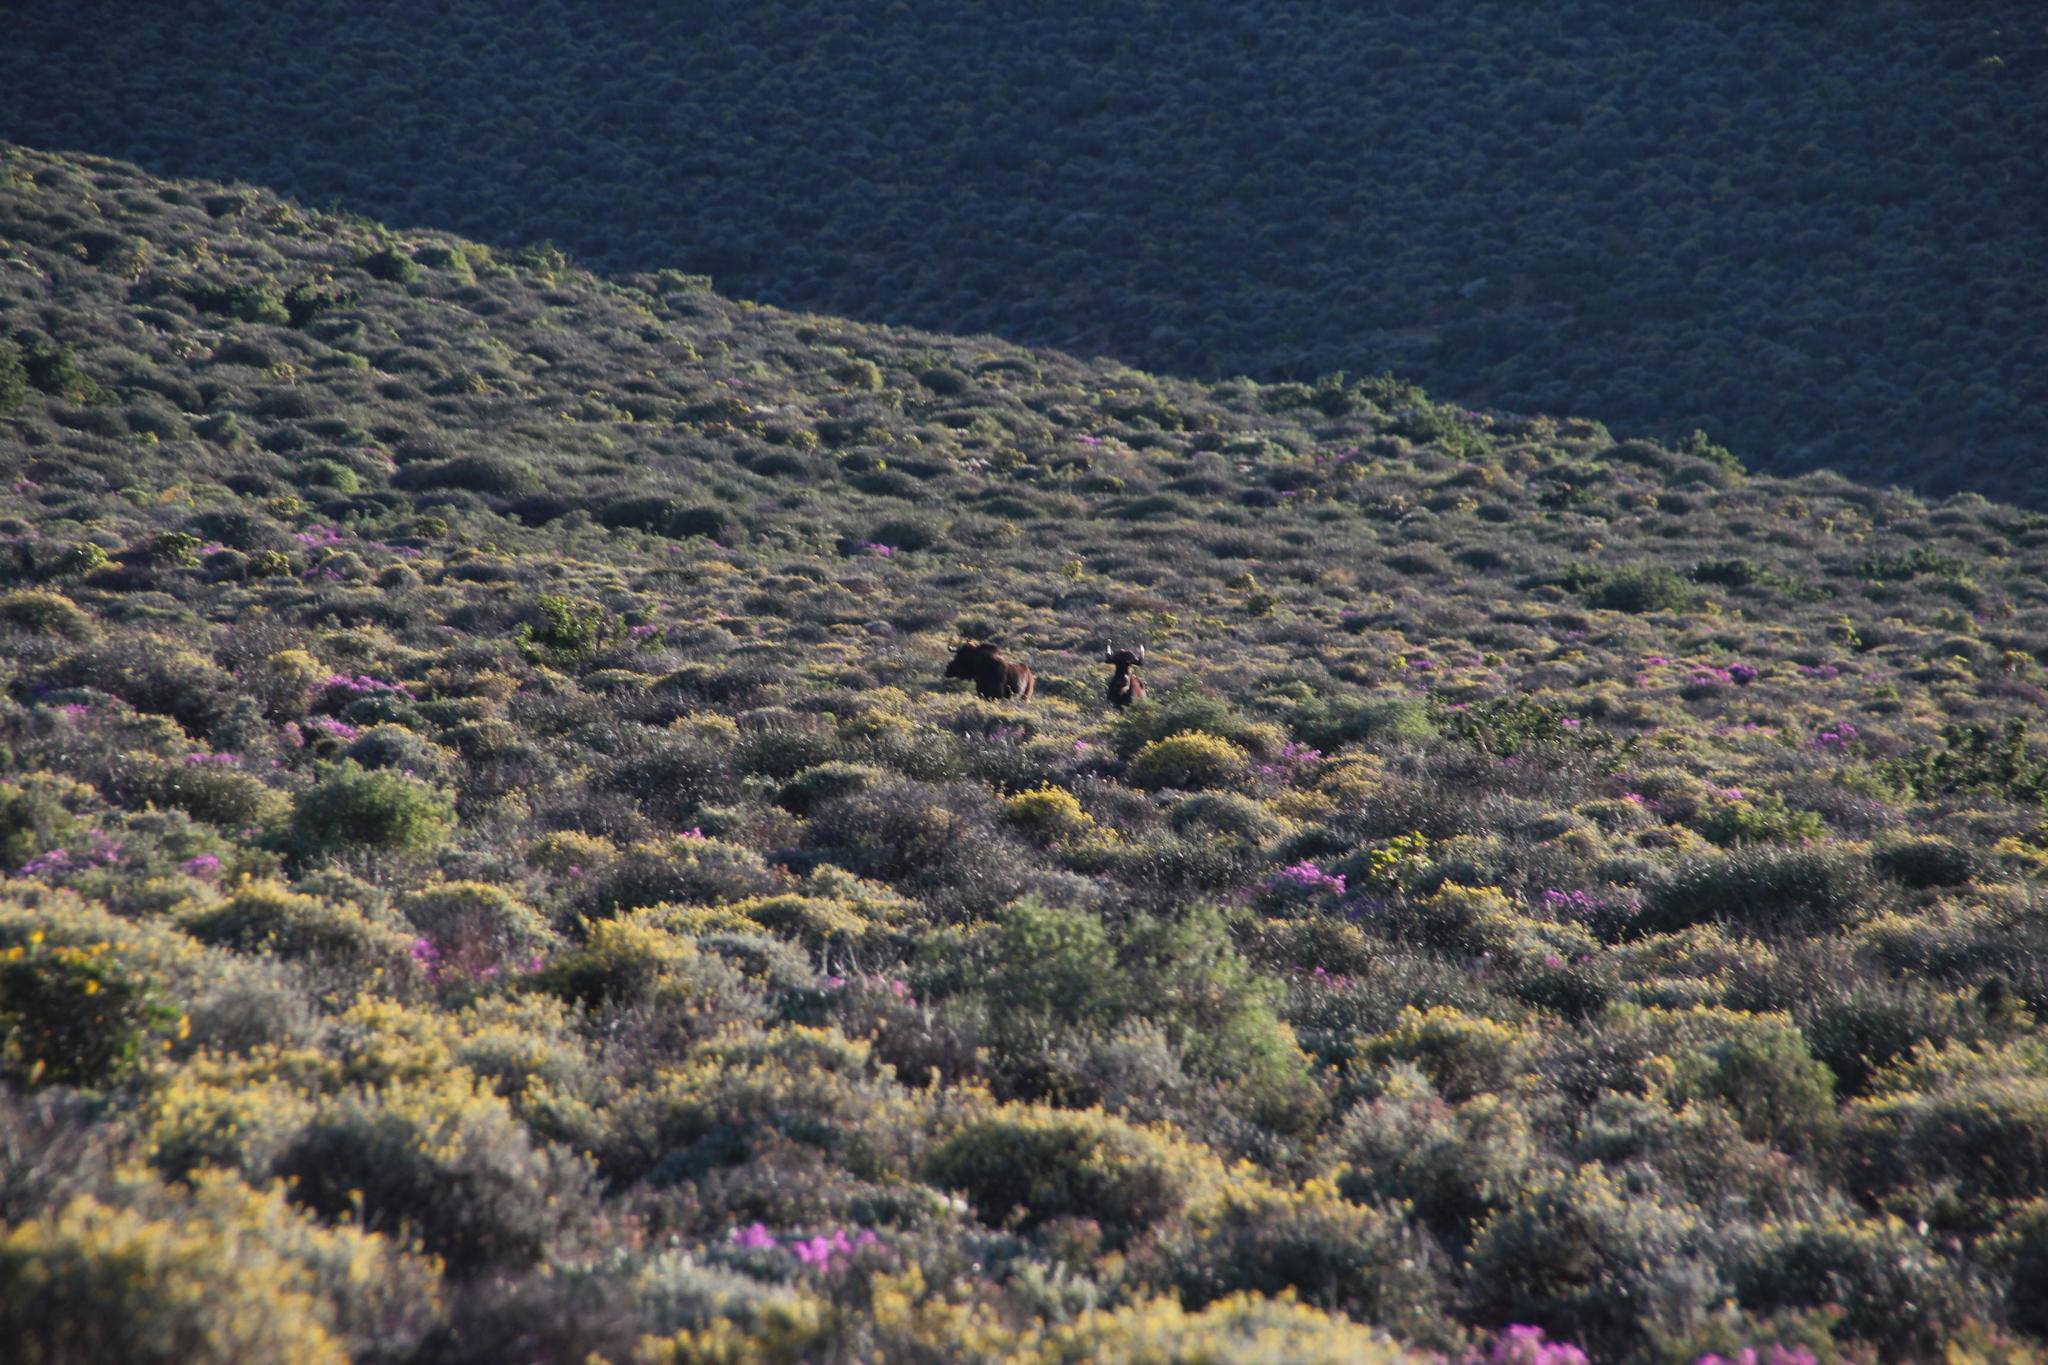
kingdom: Animalia
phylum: Chordata
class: Mammalia
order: Artiodactyla
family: Bovidae
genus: Connochaetes
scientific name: Connochaetes gnou
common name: Black wildebeest
